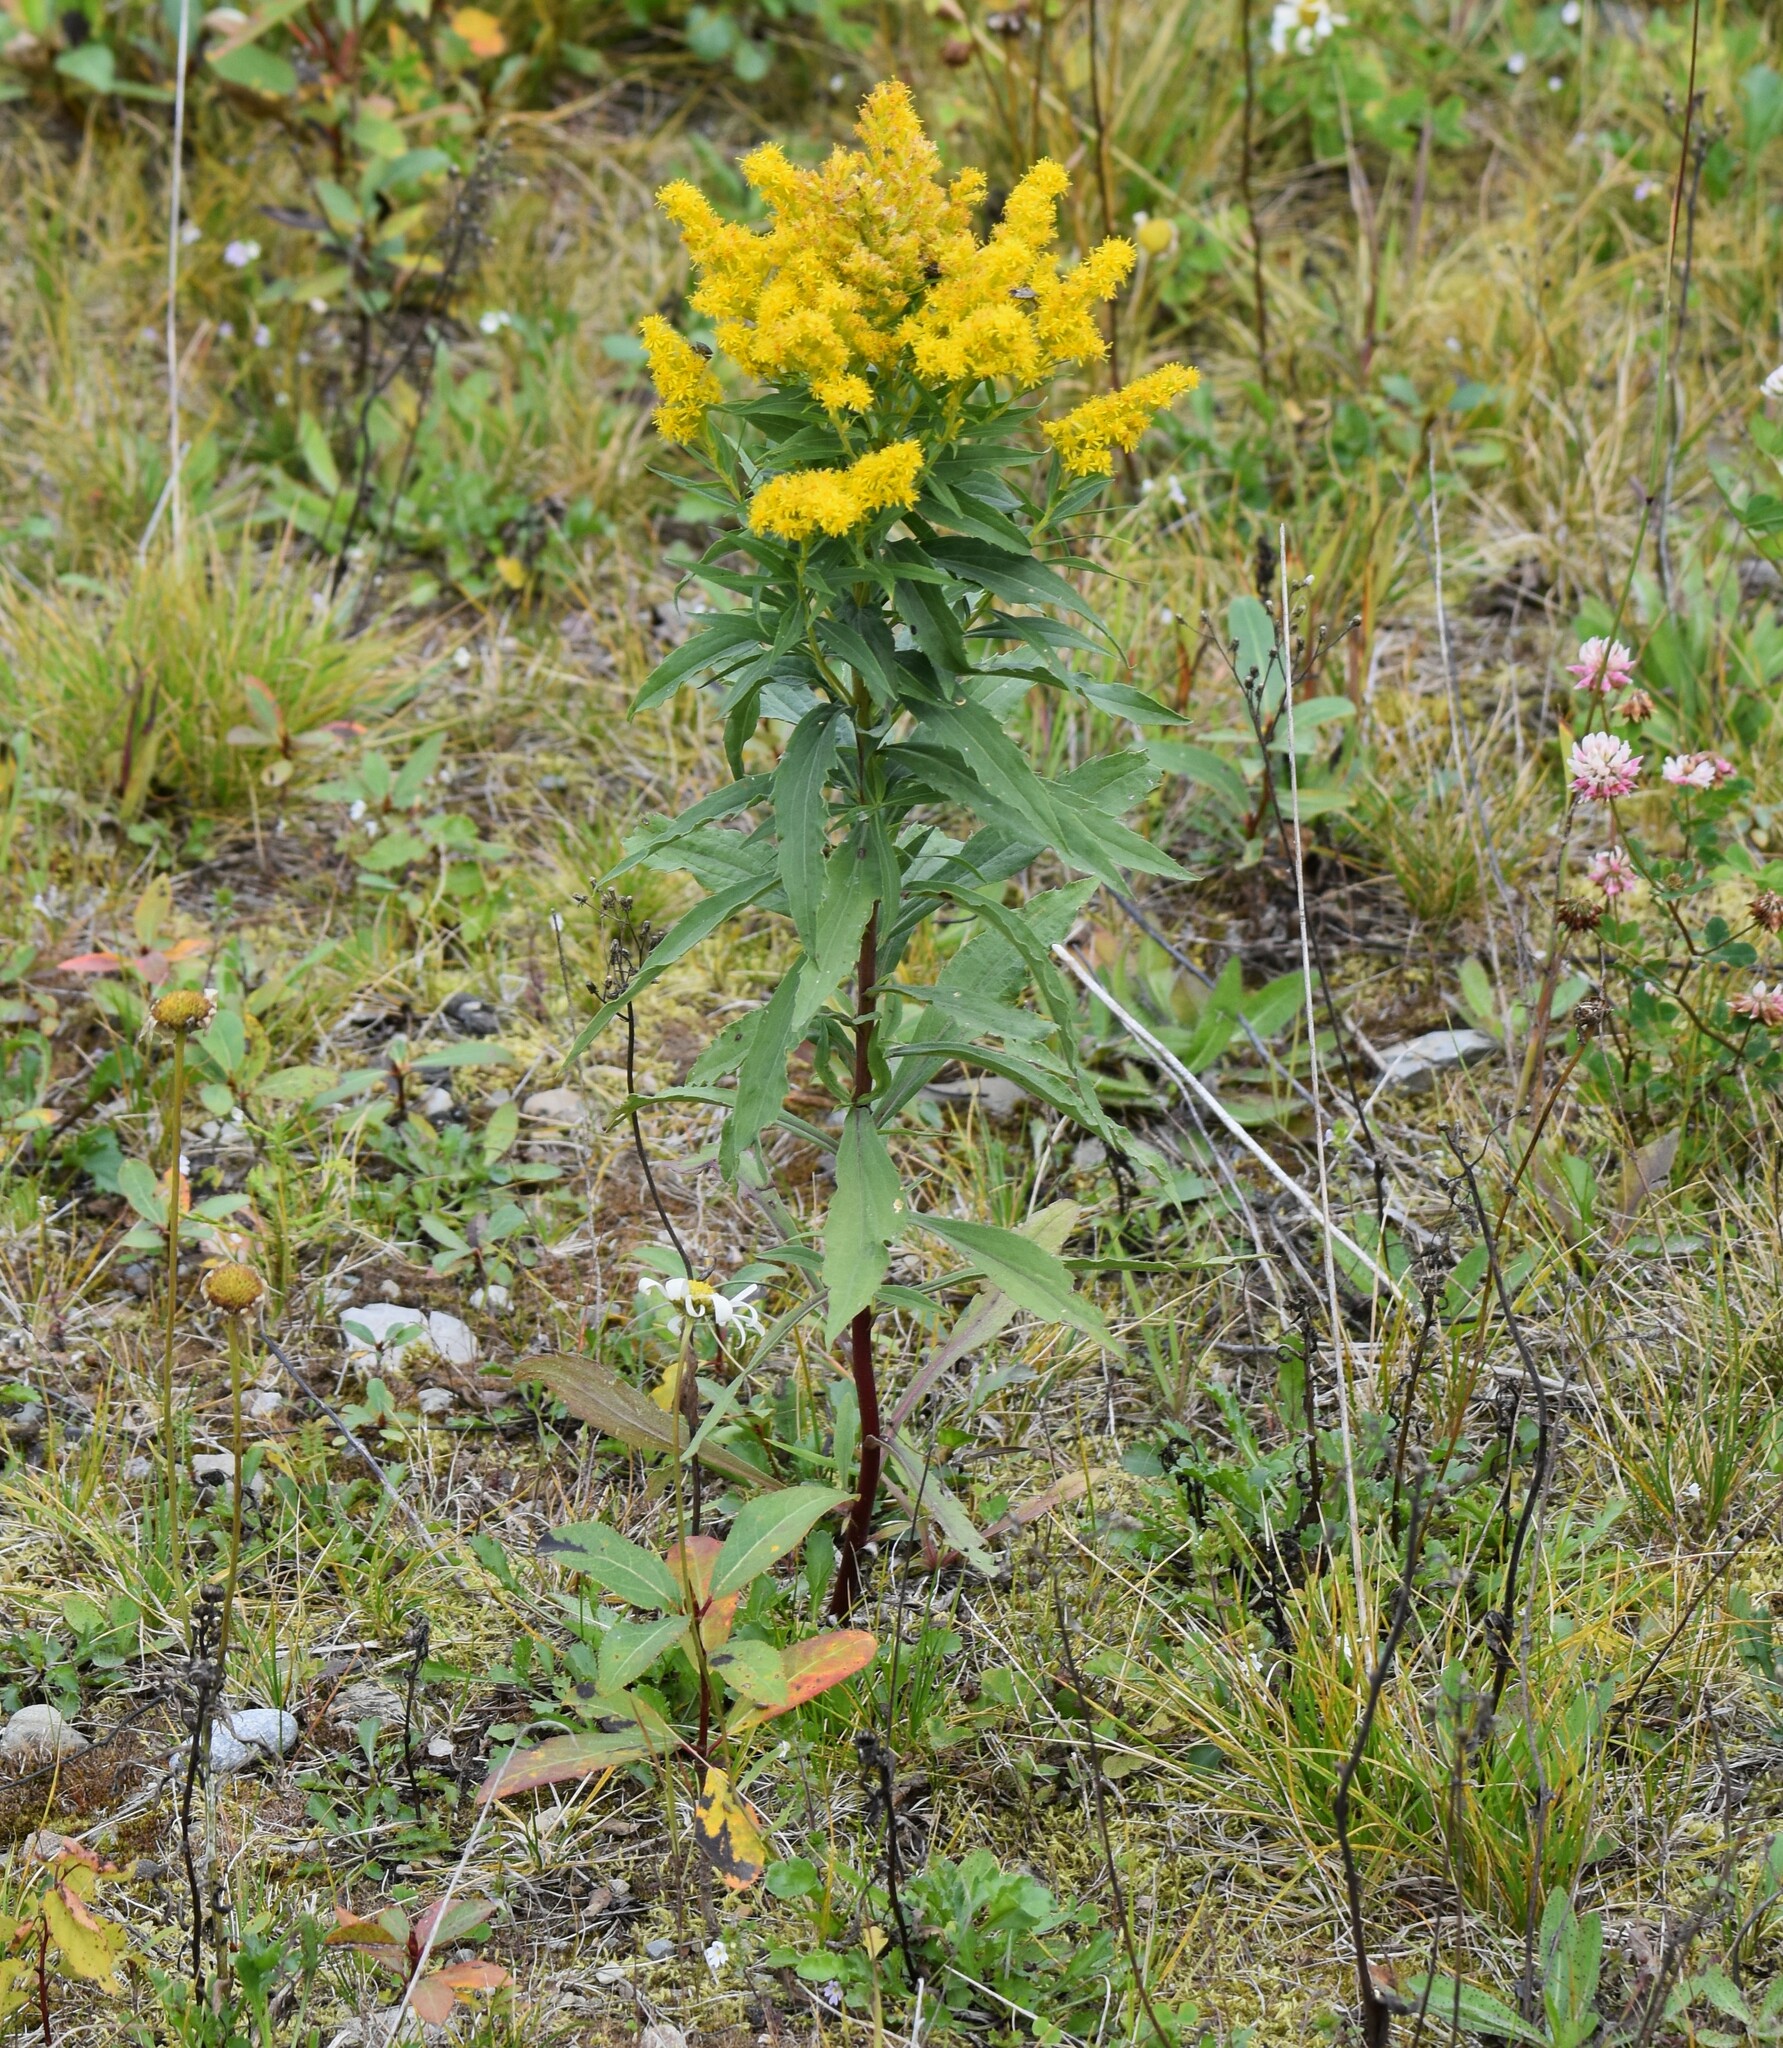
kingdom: Plantae
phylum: Tracheophyta
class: Magnoliopsida
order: Asterales
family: Asteraceae
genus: Solidago
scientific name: Solidago lepida
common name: Western canada goldenrod
